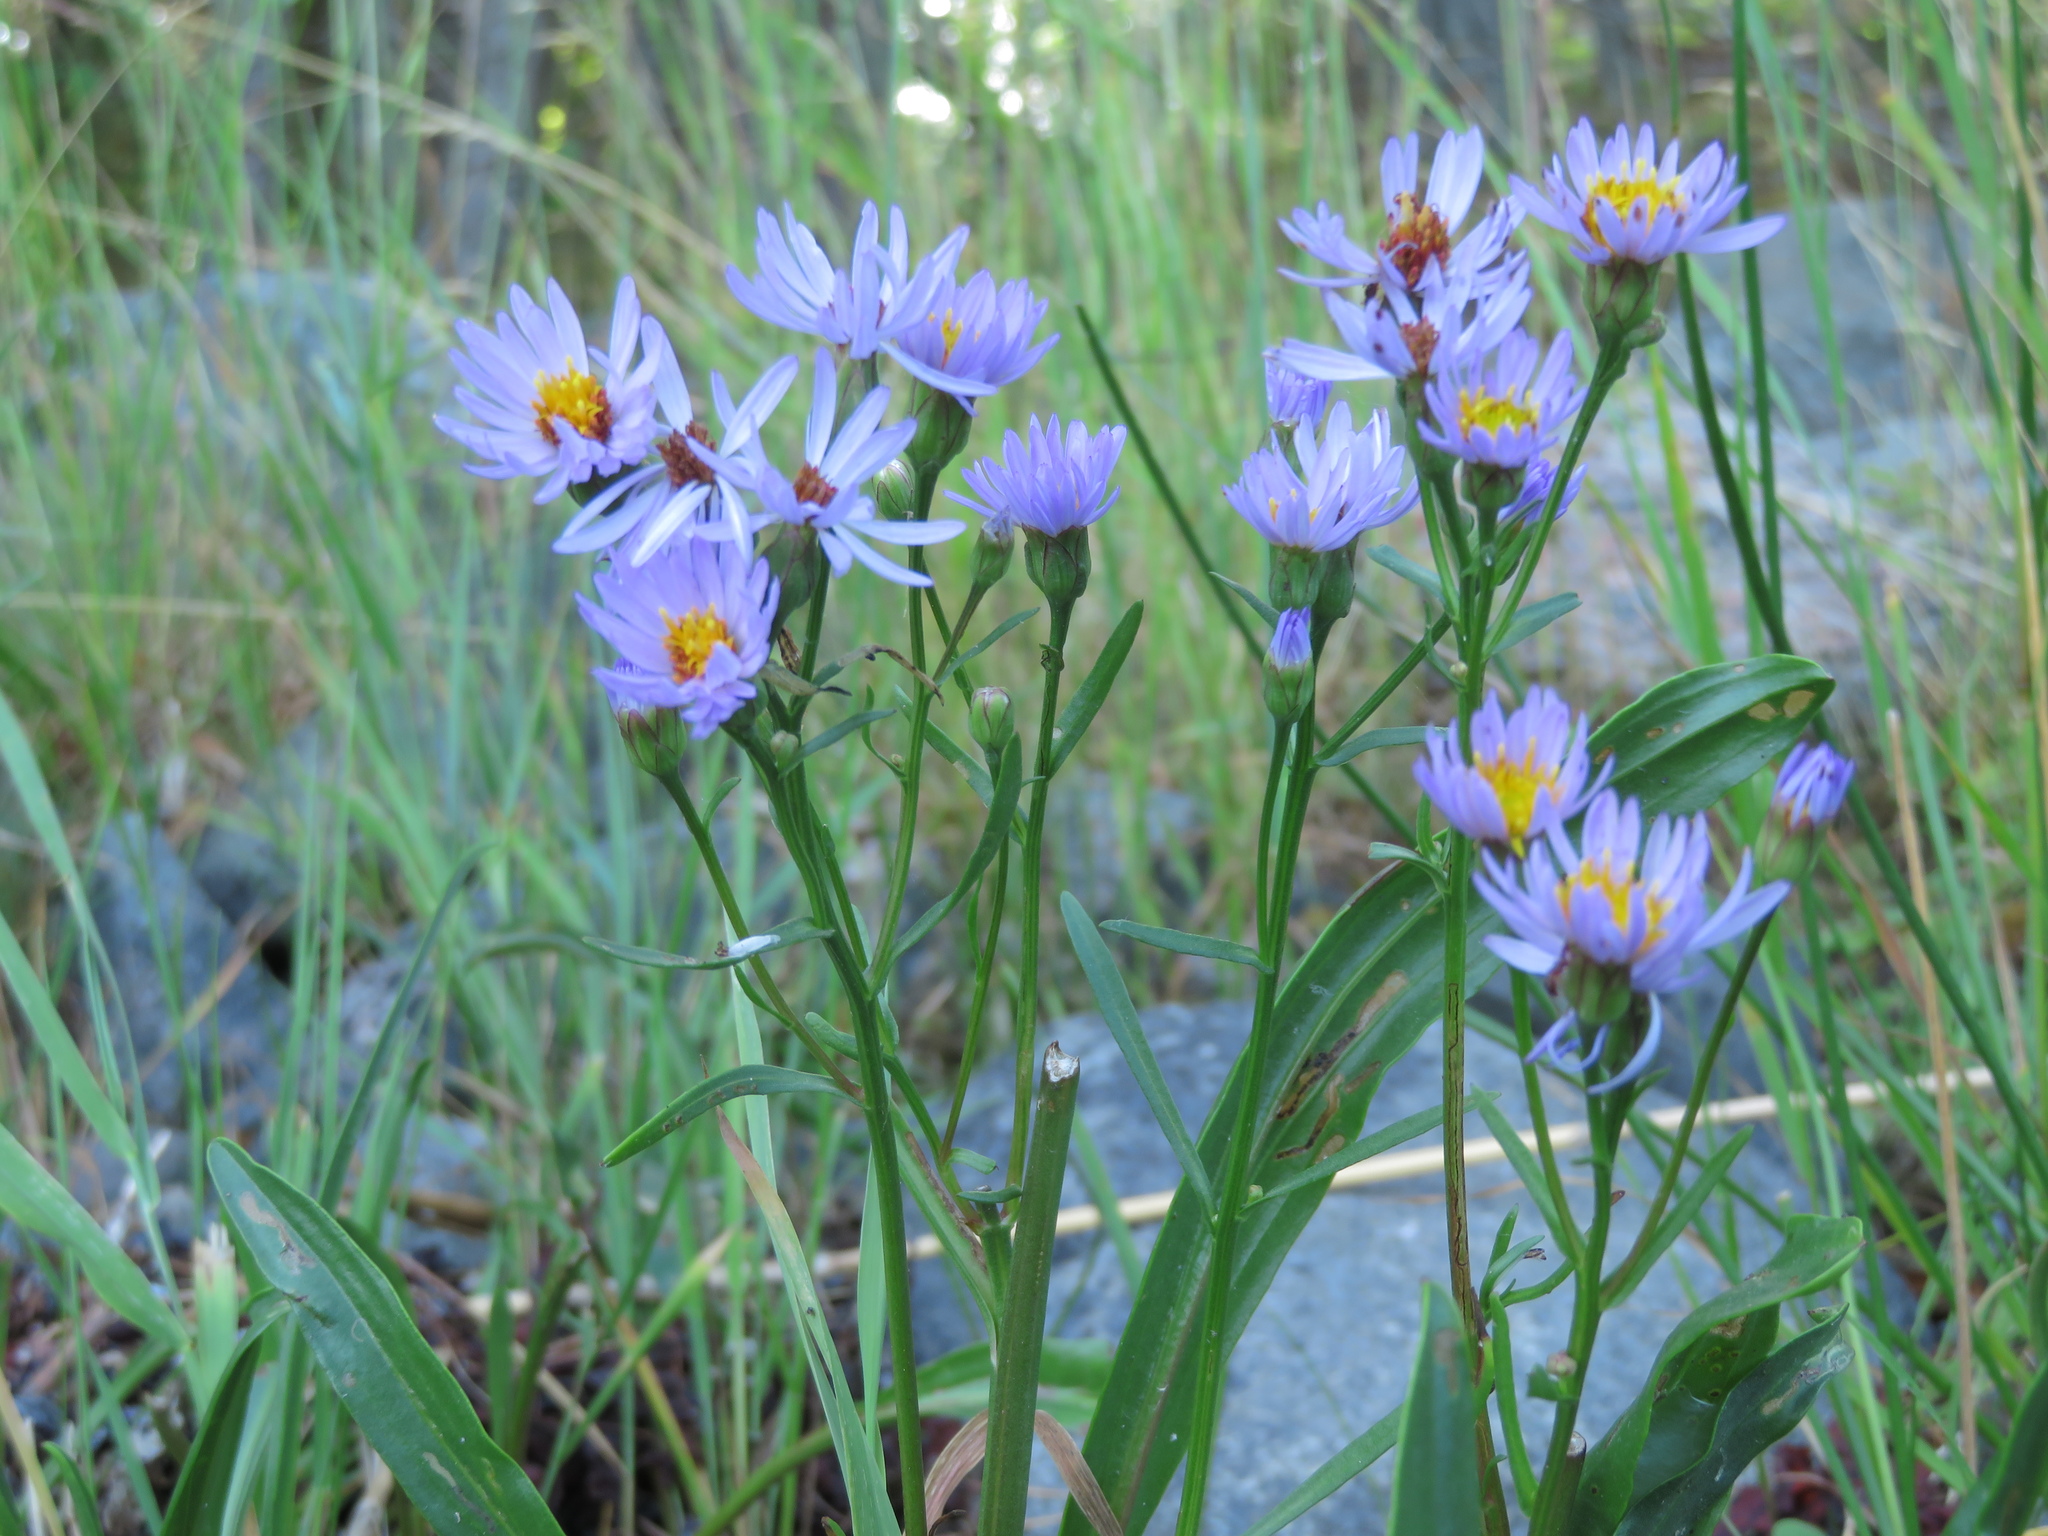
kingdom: Plantae
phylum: Tracheophyta
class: Magnoliopsida
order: Asterales
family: Asteraceae
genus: Tripolium
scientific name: Tripolium pannonicum
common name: Sea aster
